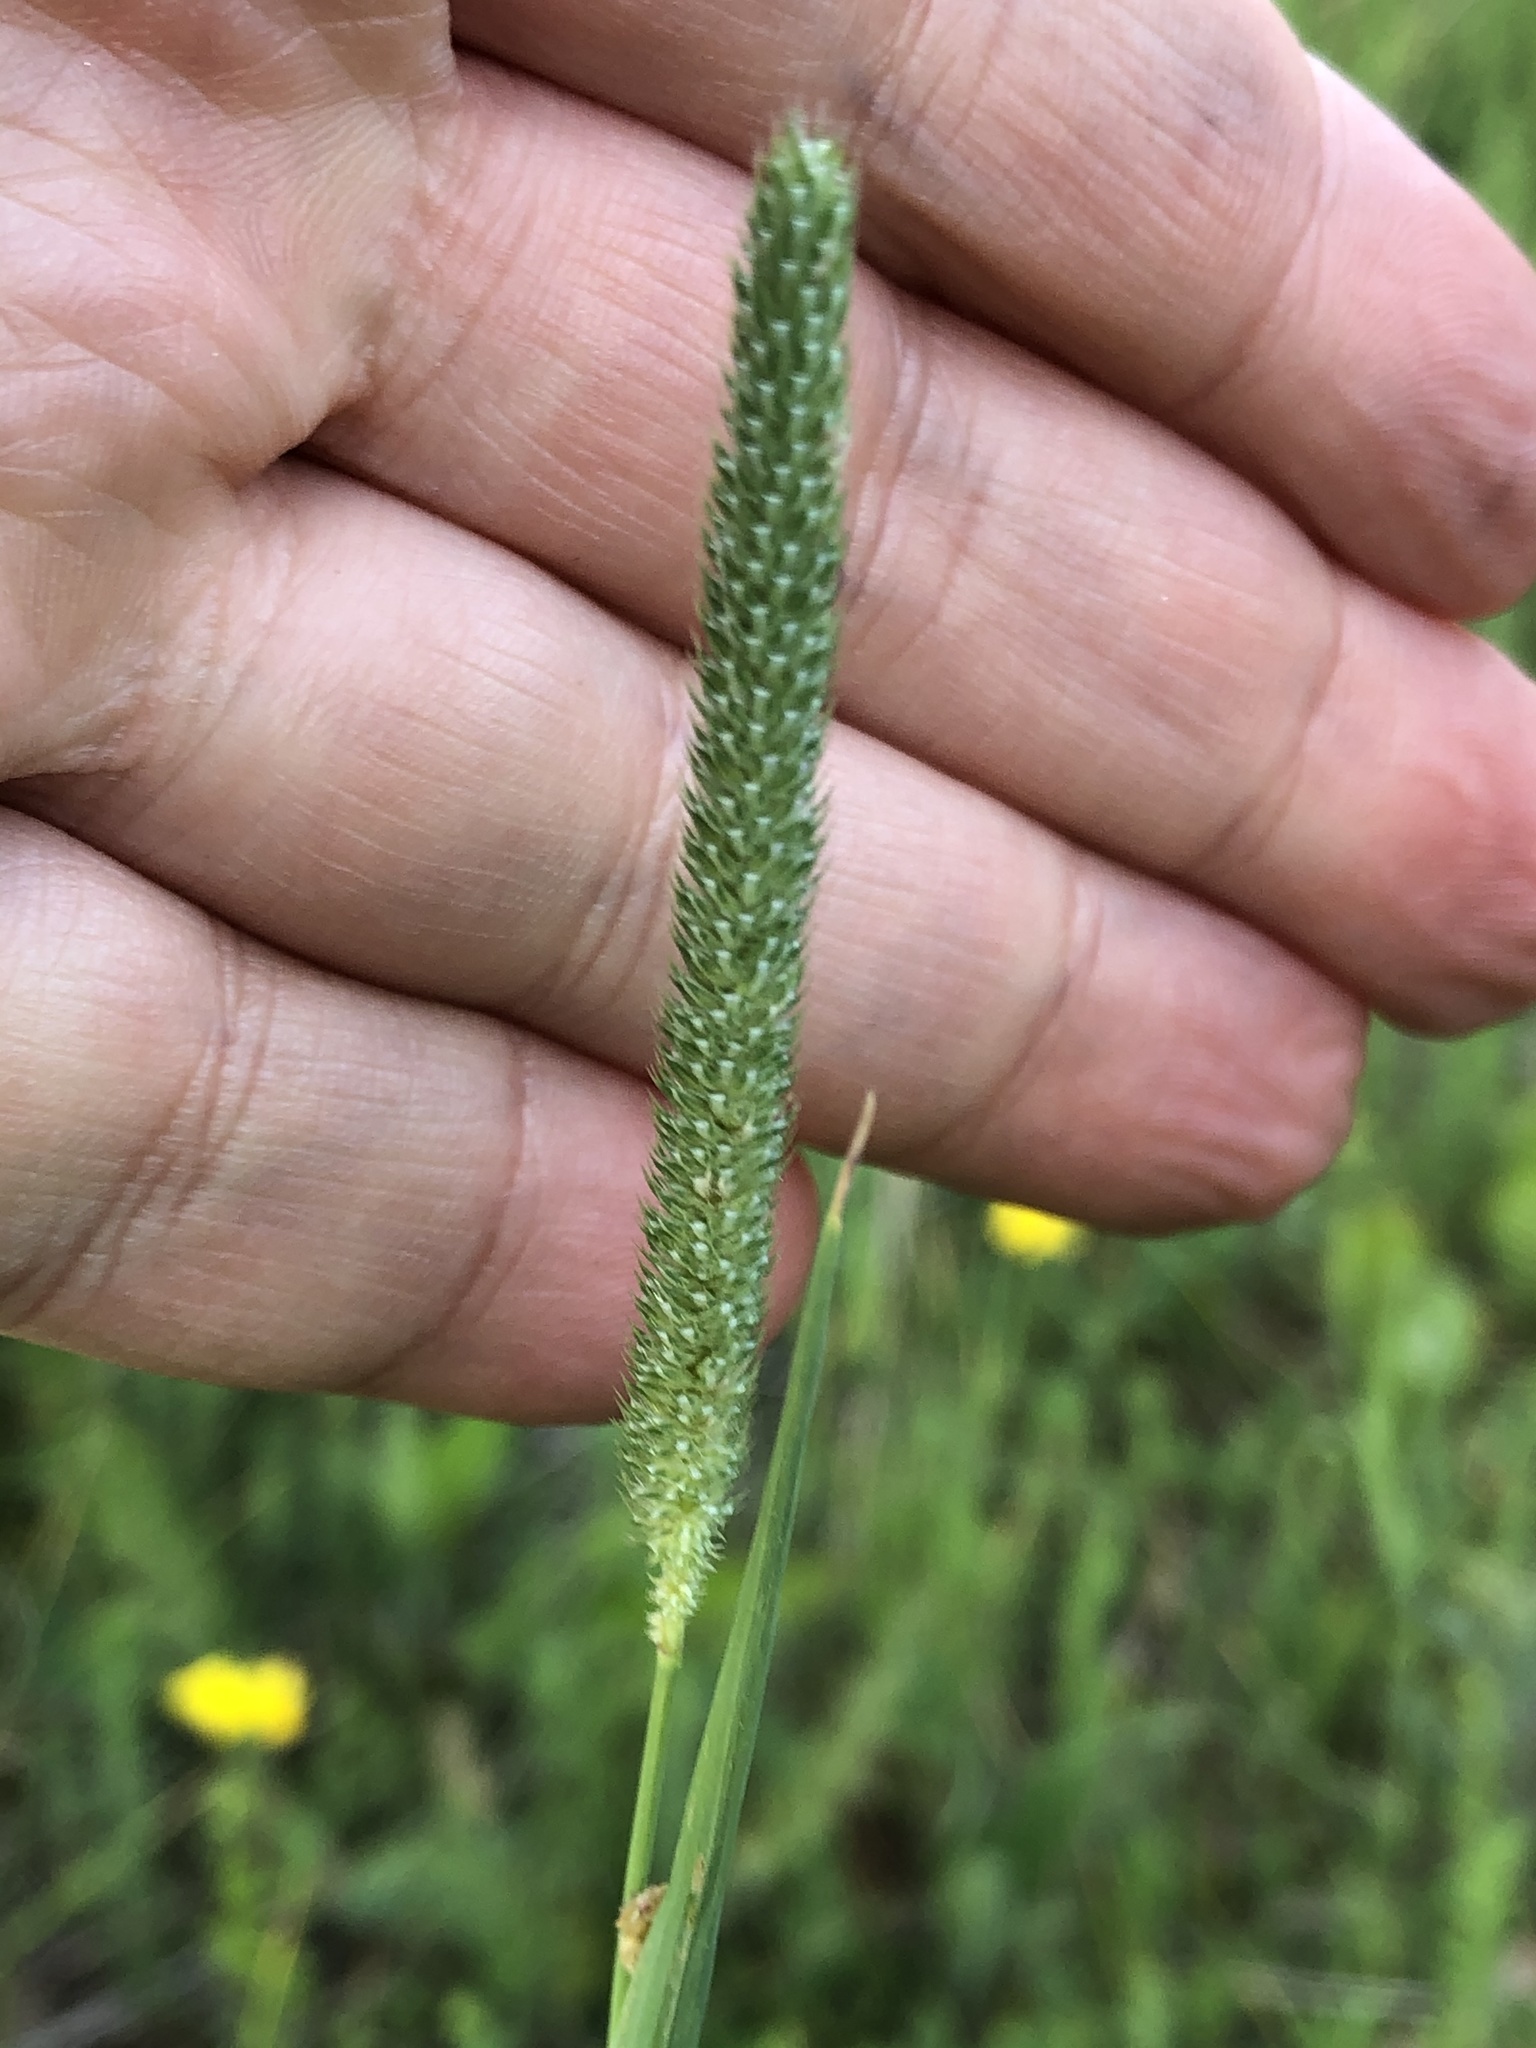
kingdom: Plantae
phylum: Tracheophyta
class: Liliopsida
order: Poales
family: Poaceae
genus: Phleum
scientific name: Phleum pratense
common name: Timothy grass
